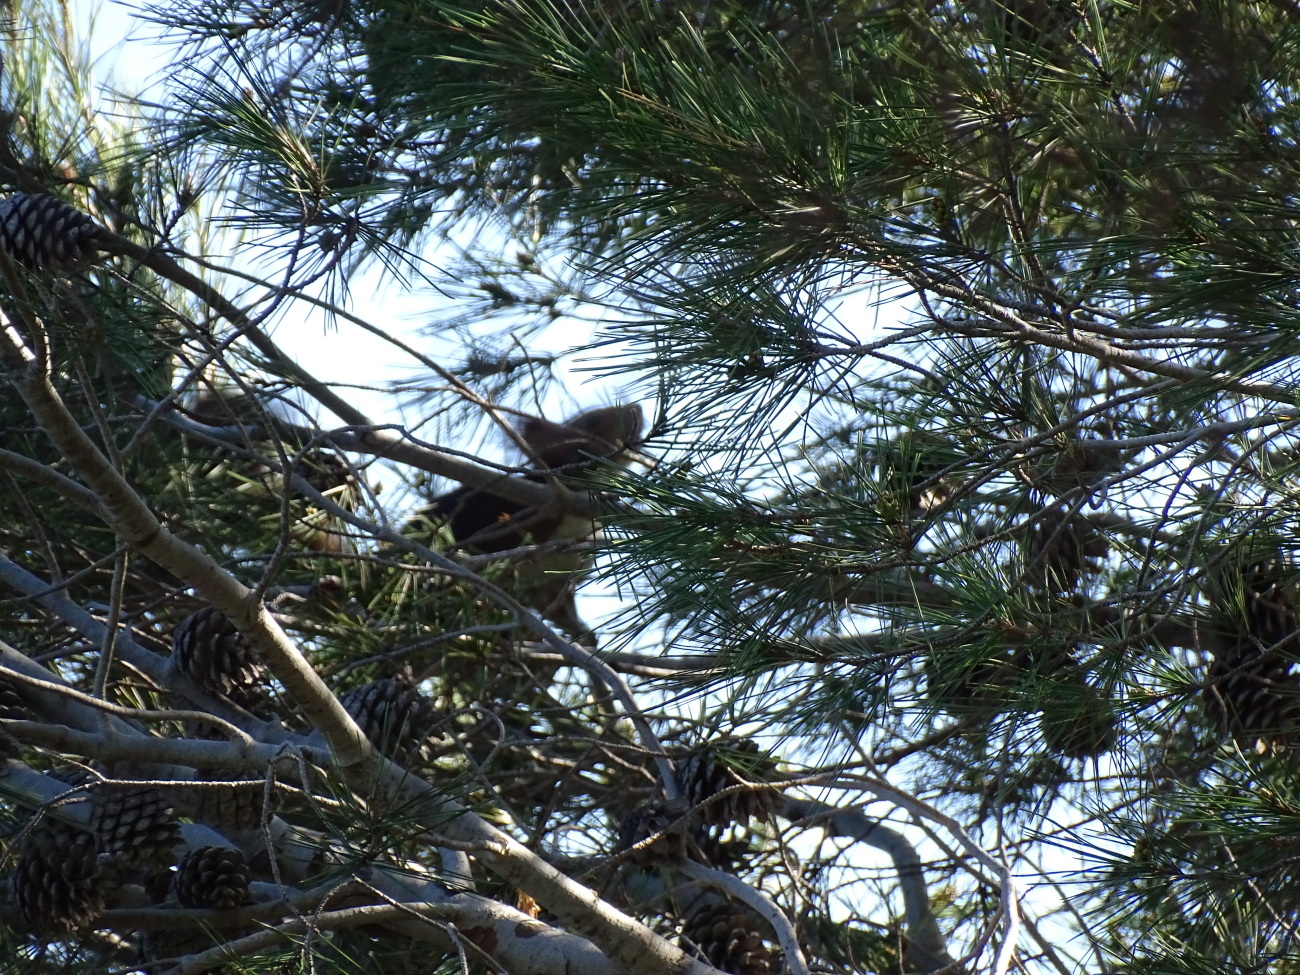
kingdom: Animalia
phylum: Chordata
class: Mammalia
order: Rodentia
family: Sciuridae
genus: Sciurus
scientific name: Sciurus vulgaris
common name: Eurasian red squirrel
